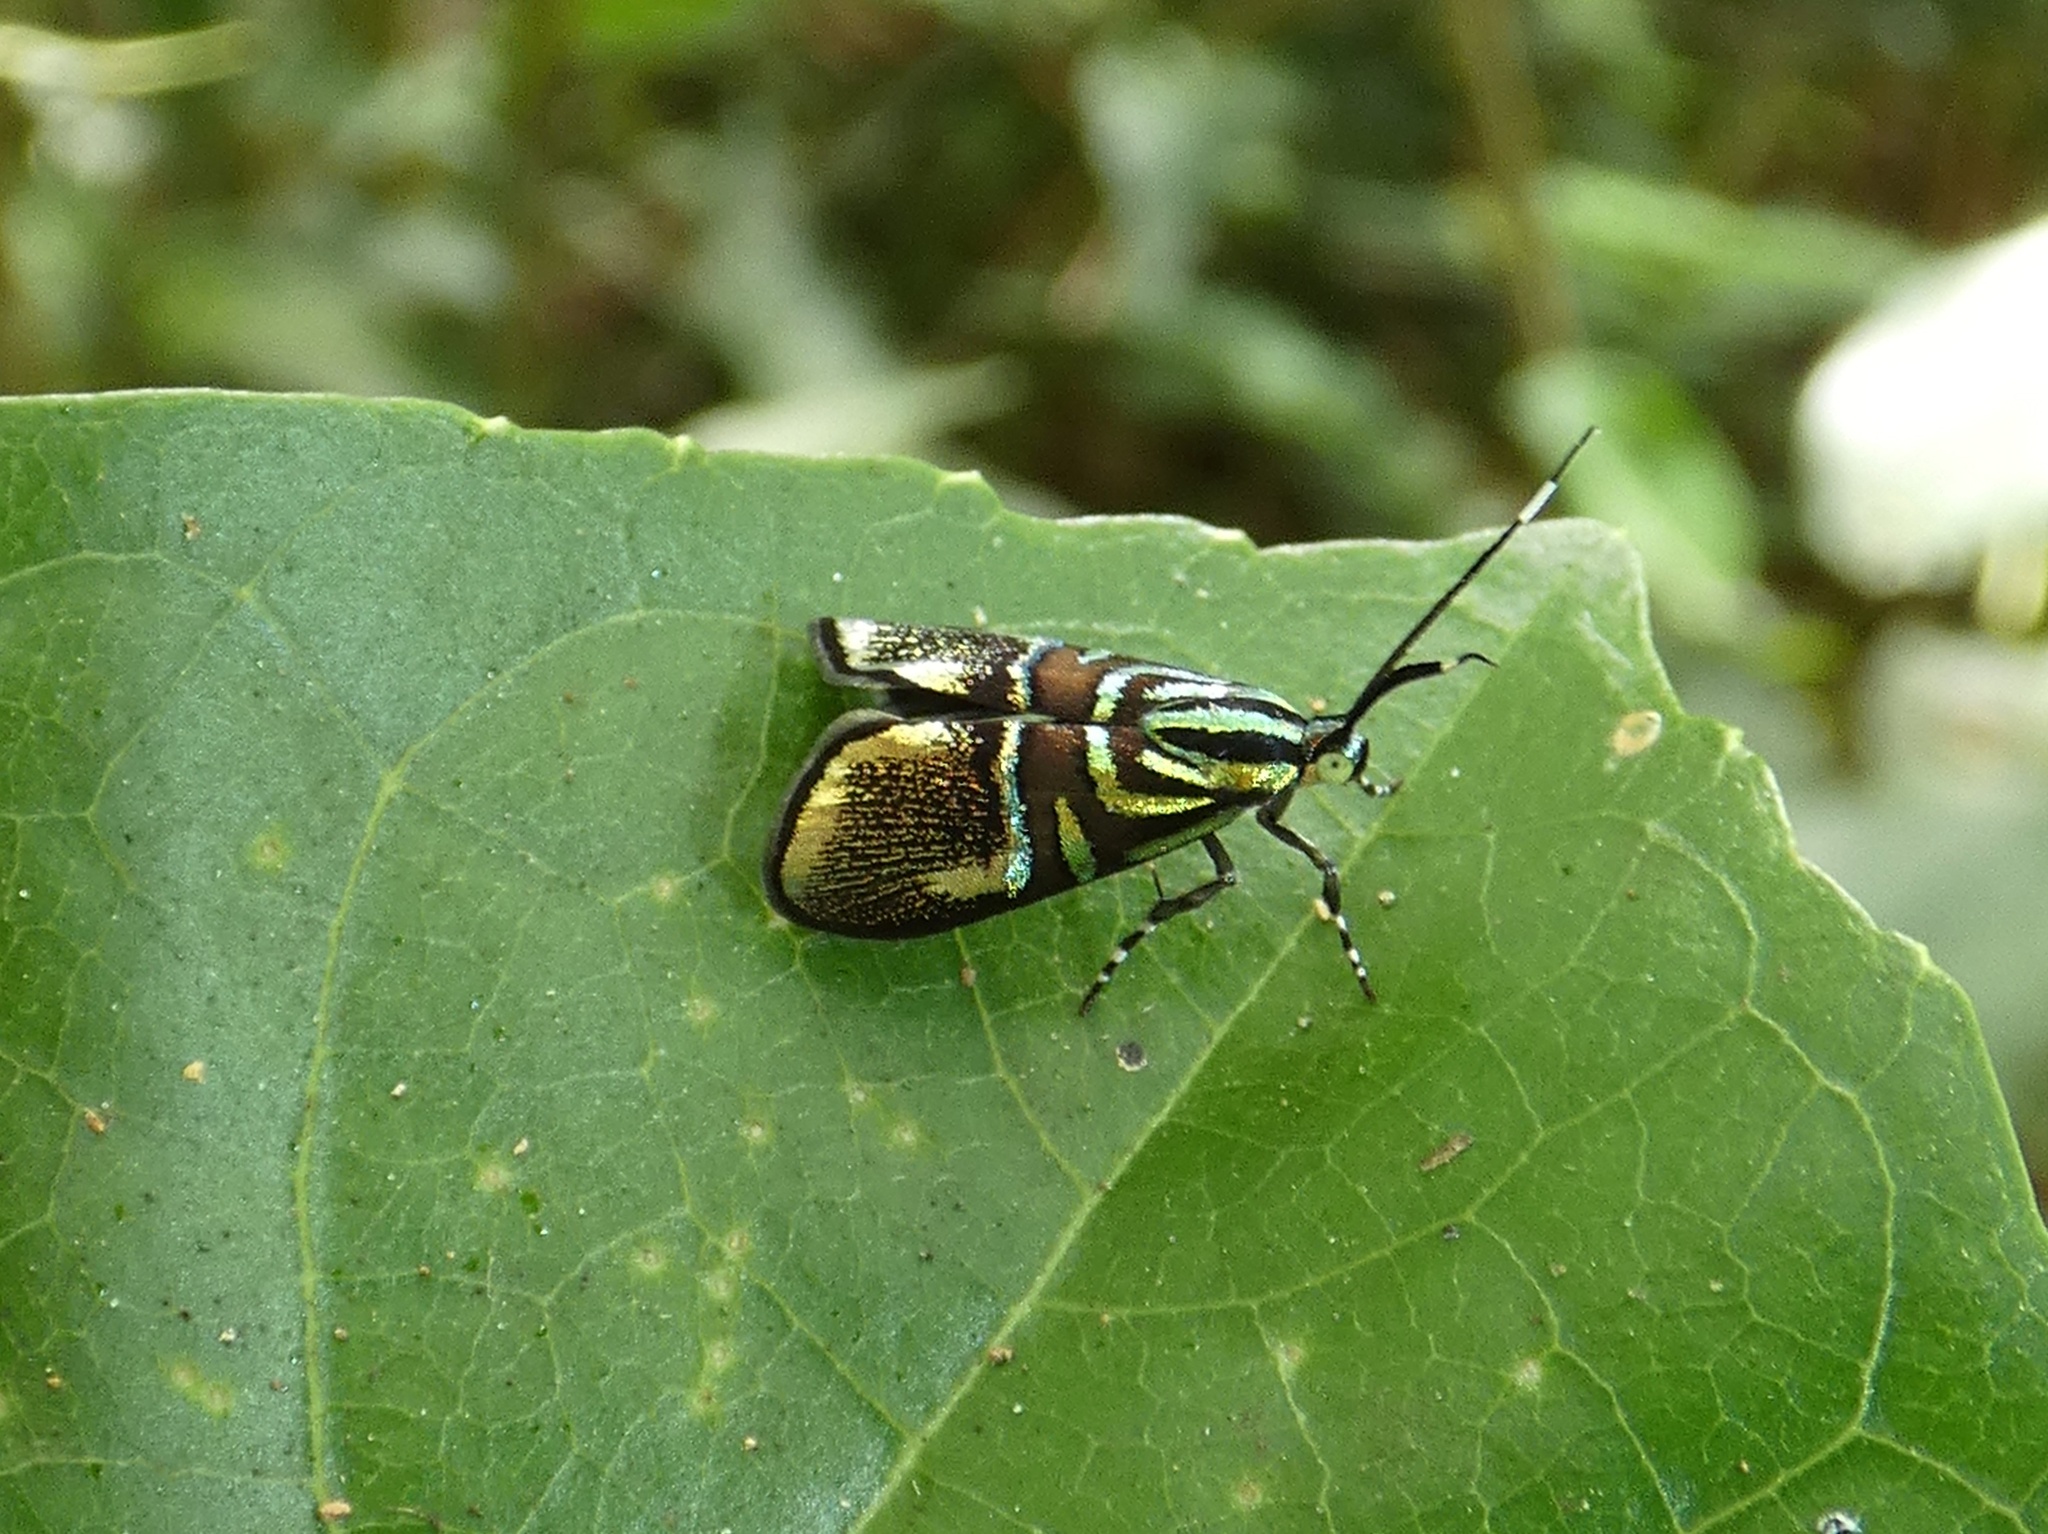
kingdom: Animalia
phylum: Arthropoda
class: Insecta
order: Lepidoptera
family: Choreutidae
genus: Saptha
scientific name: Saptha divitiosa
